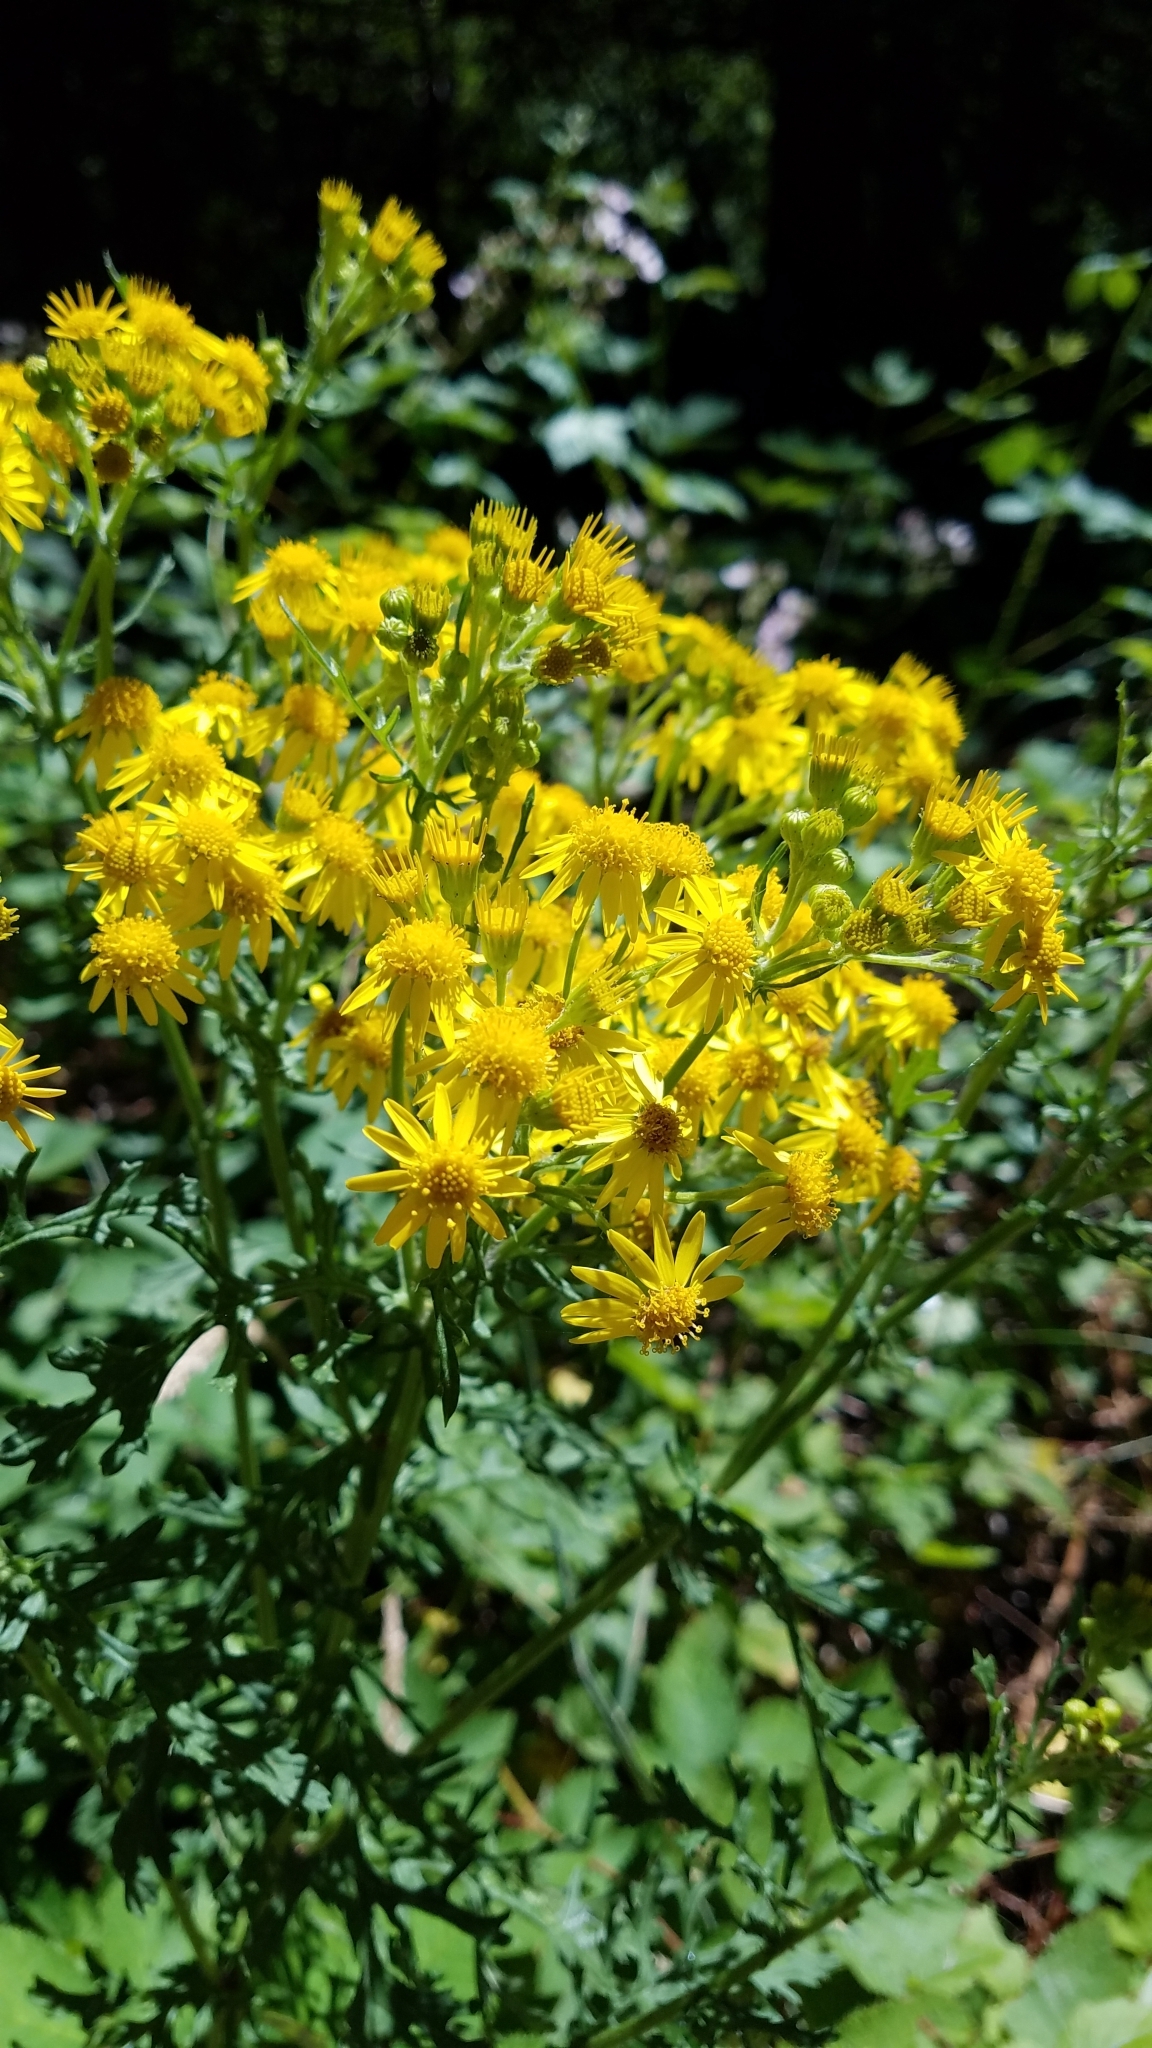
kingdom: Plantae
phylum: Tracheophyta
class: Magnoliopsida
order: Asterales
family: Asteraceae
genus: Jacobaea
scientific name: Jacobaea vulgaris
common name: Stinking willie
